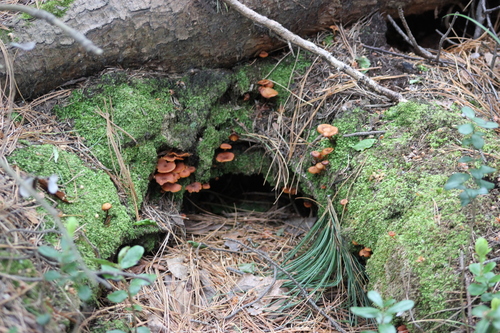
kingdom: Fungi
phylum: Basidiomycota
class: Agaricomycetes
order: Agaricales
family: Mycenaceae
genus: Xeromphalina
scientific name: Xeromphalina campanella
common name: Pinewood gingertail
